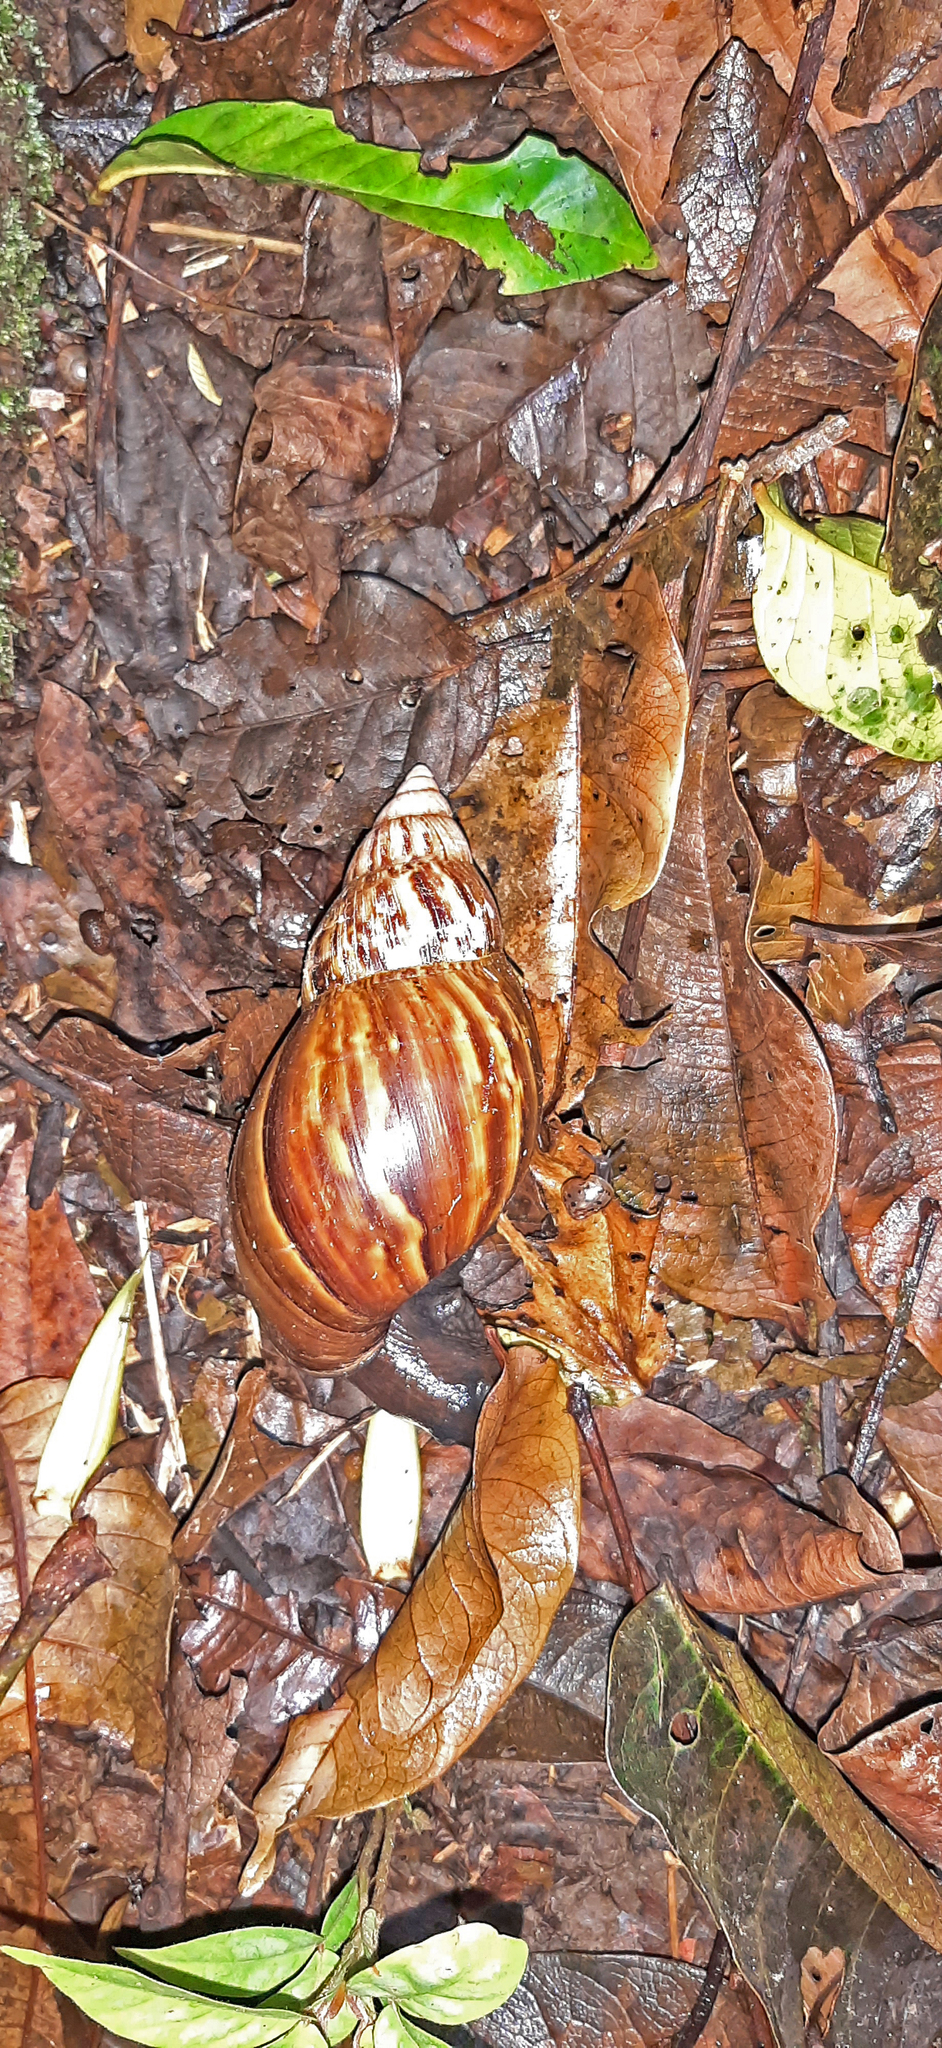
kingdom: Animalia
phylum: Mollusca
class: Gastropoda
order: Stylommatophora
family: Achatinidae
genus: Lissachatina
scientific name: Lissachatina fulica
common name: Giant african snail
